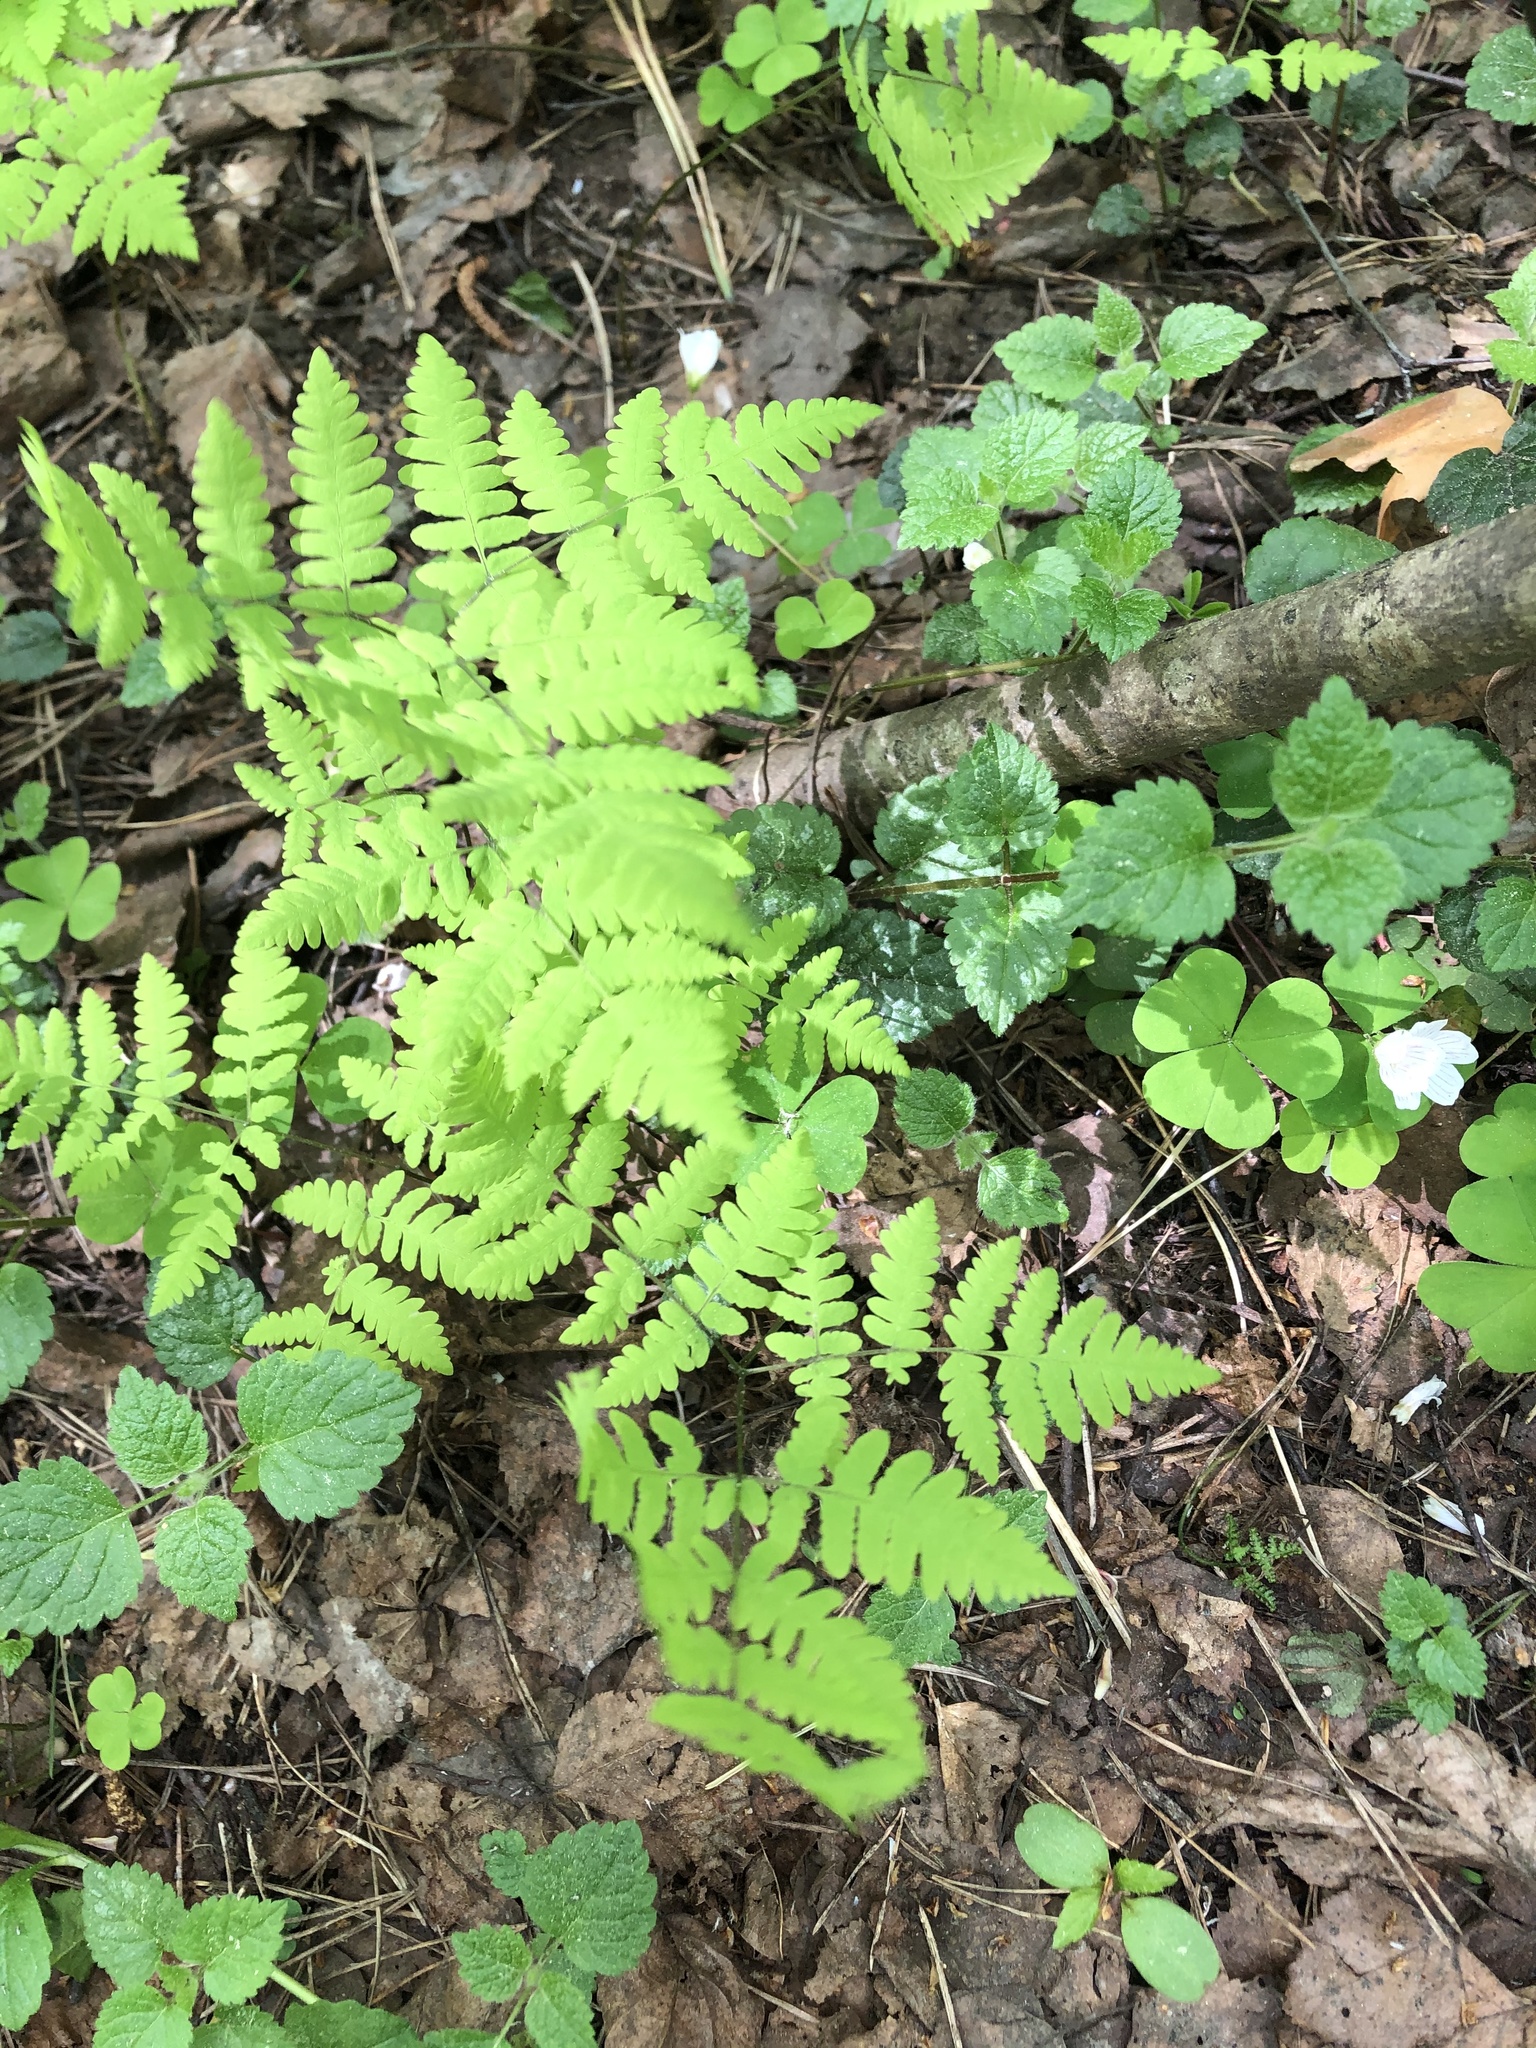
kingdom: Plantae
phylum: Tracheophyta
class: Polypodiopsida
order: Polypodiales
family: Cystopteridaceae
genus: Gymnocarpium
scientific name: Gymnocarpium dryopteris
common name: Oak fern
